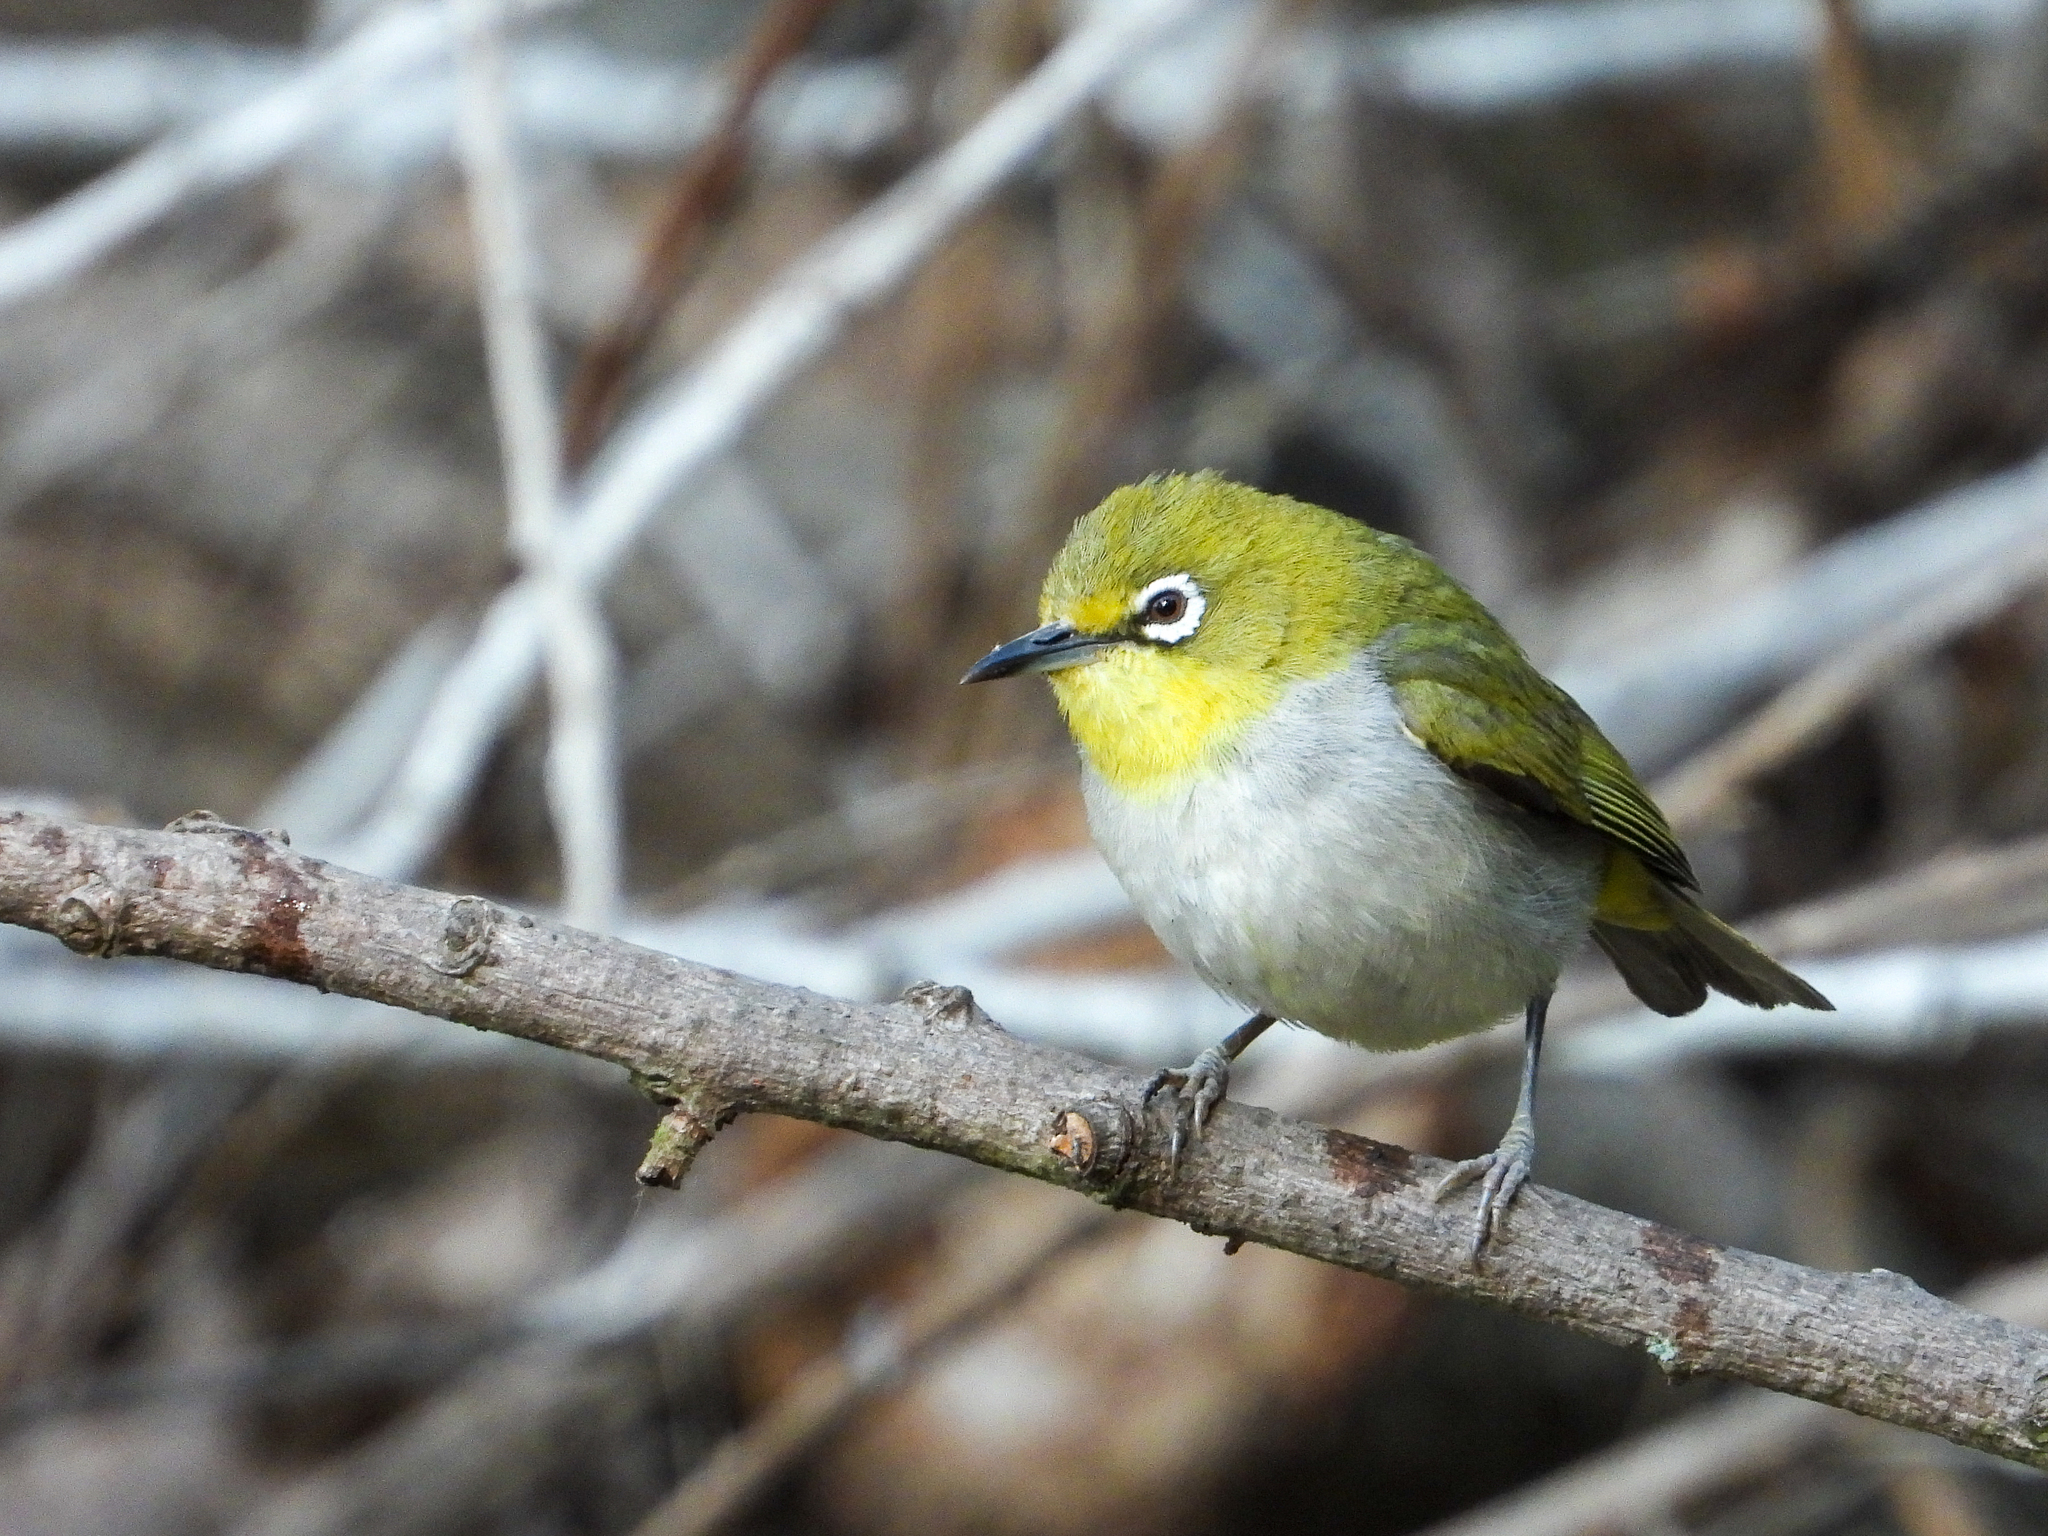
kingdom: Animalia
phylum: Chordata
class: Aves
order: Passeriformes
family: Zosteropidae
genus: Zosterops
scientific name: Zosterops simplex
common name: Swinhoe's white-eye
